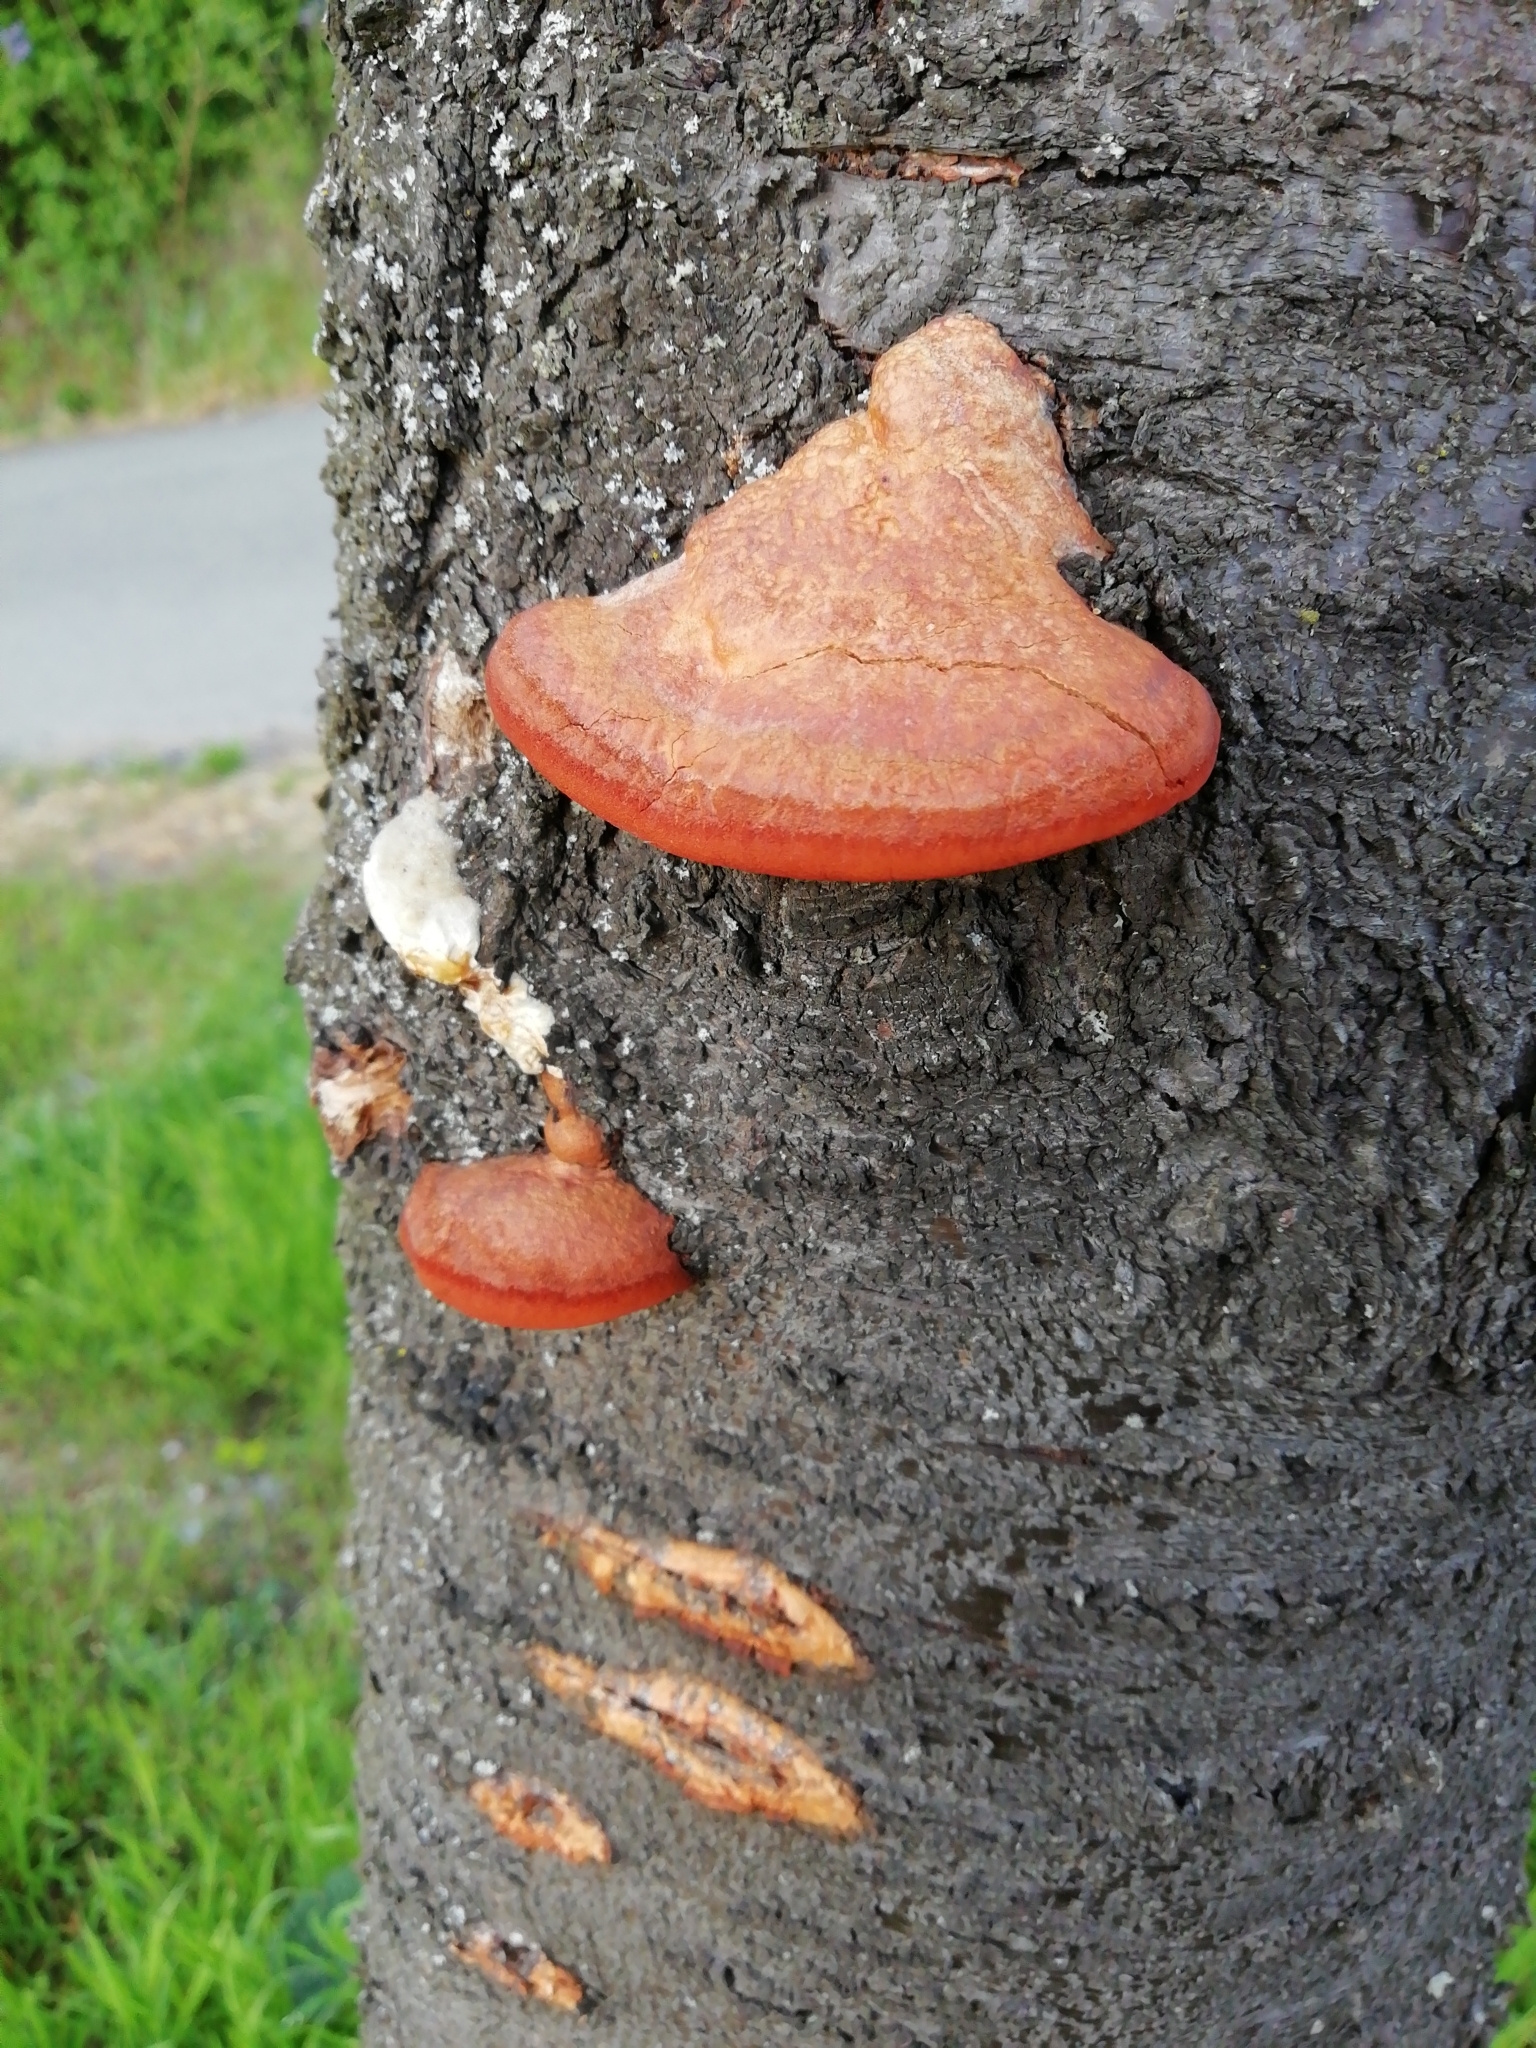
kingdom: Fungi
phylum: Basidiomycota
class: Agaricomycetes
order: Polyporales
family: Polyporaceae
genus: Trametes
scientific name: Trametes cinnabarina
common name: Northern cinnabar polypore
